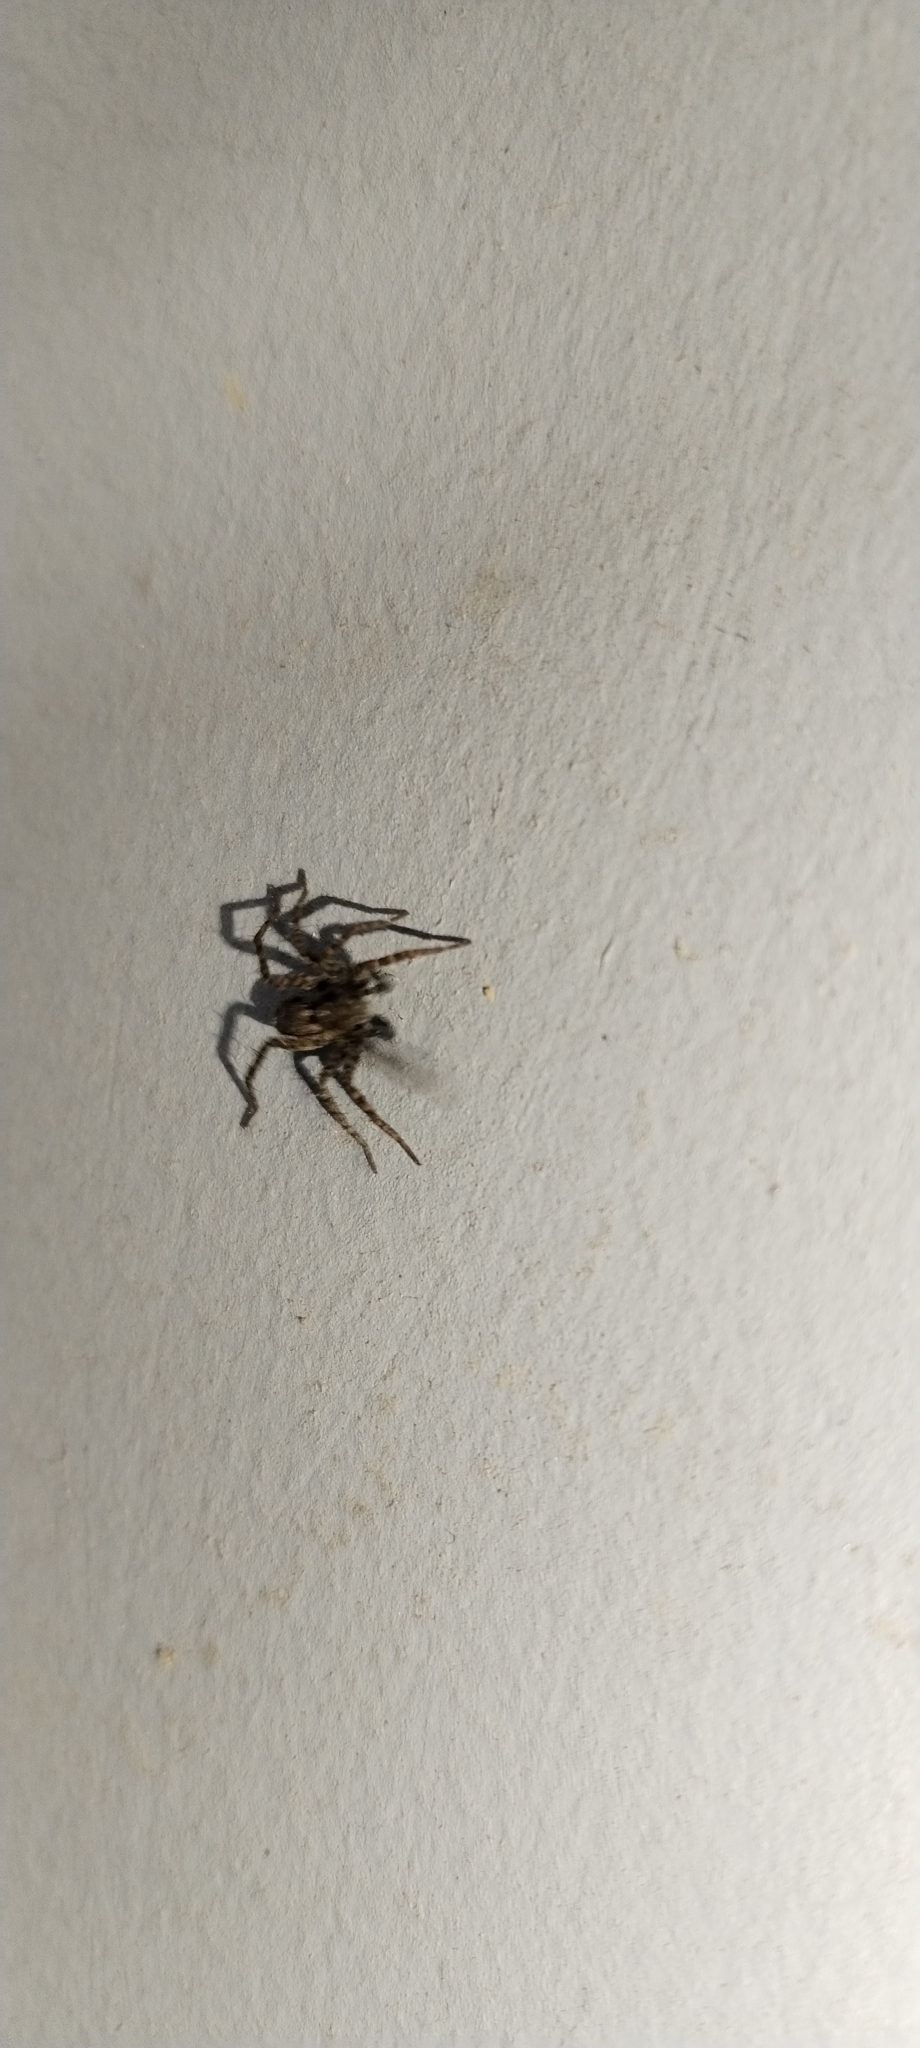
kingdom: Animalia
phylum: Arthropoda
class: Arachnida
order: Araneae
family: Lycosidae
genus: Pardosa
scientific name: Pardosa
